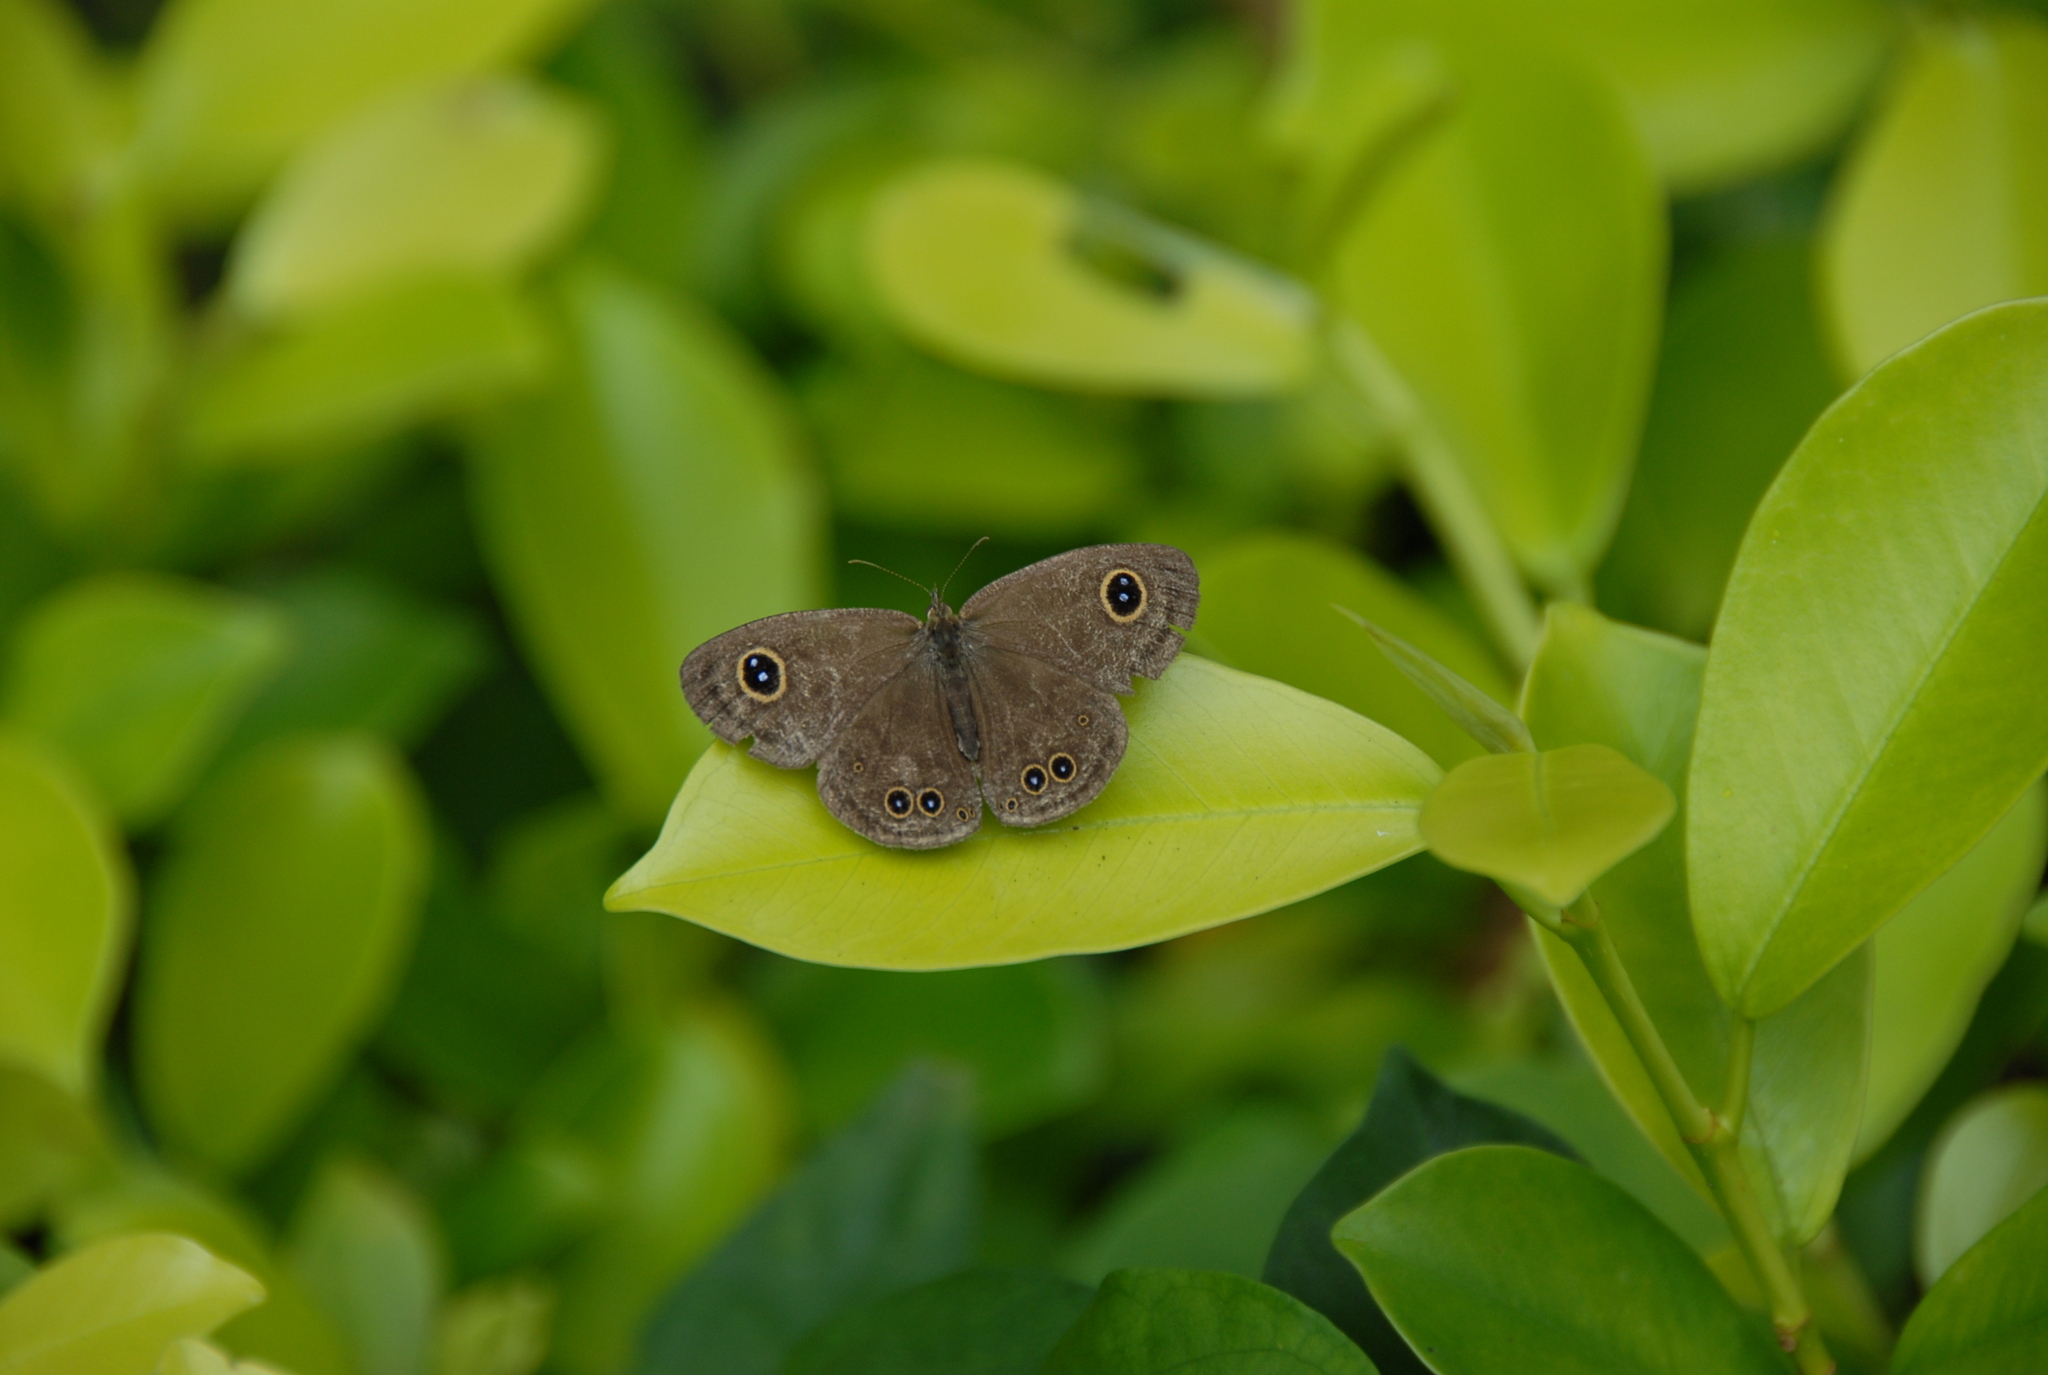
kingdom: Animalia
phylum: Arthropoda
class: Insecta
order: Lepidoptera
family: Nymphalidae
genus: Ypthima
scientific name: Ypthima baldus
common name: Common five-ring
